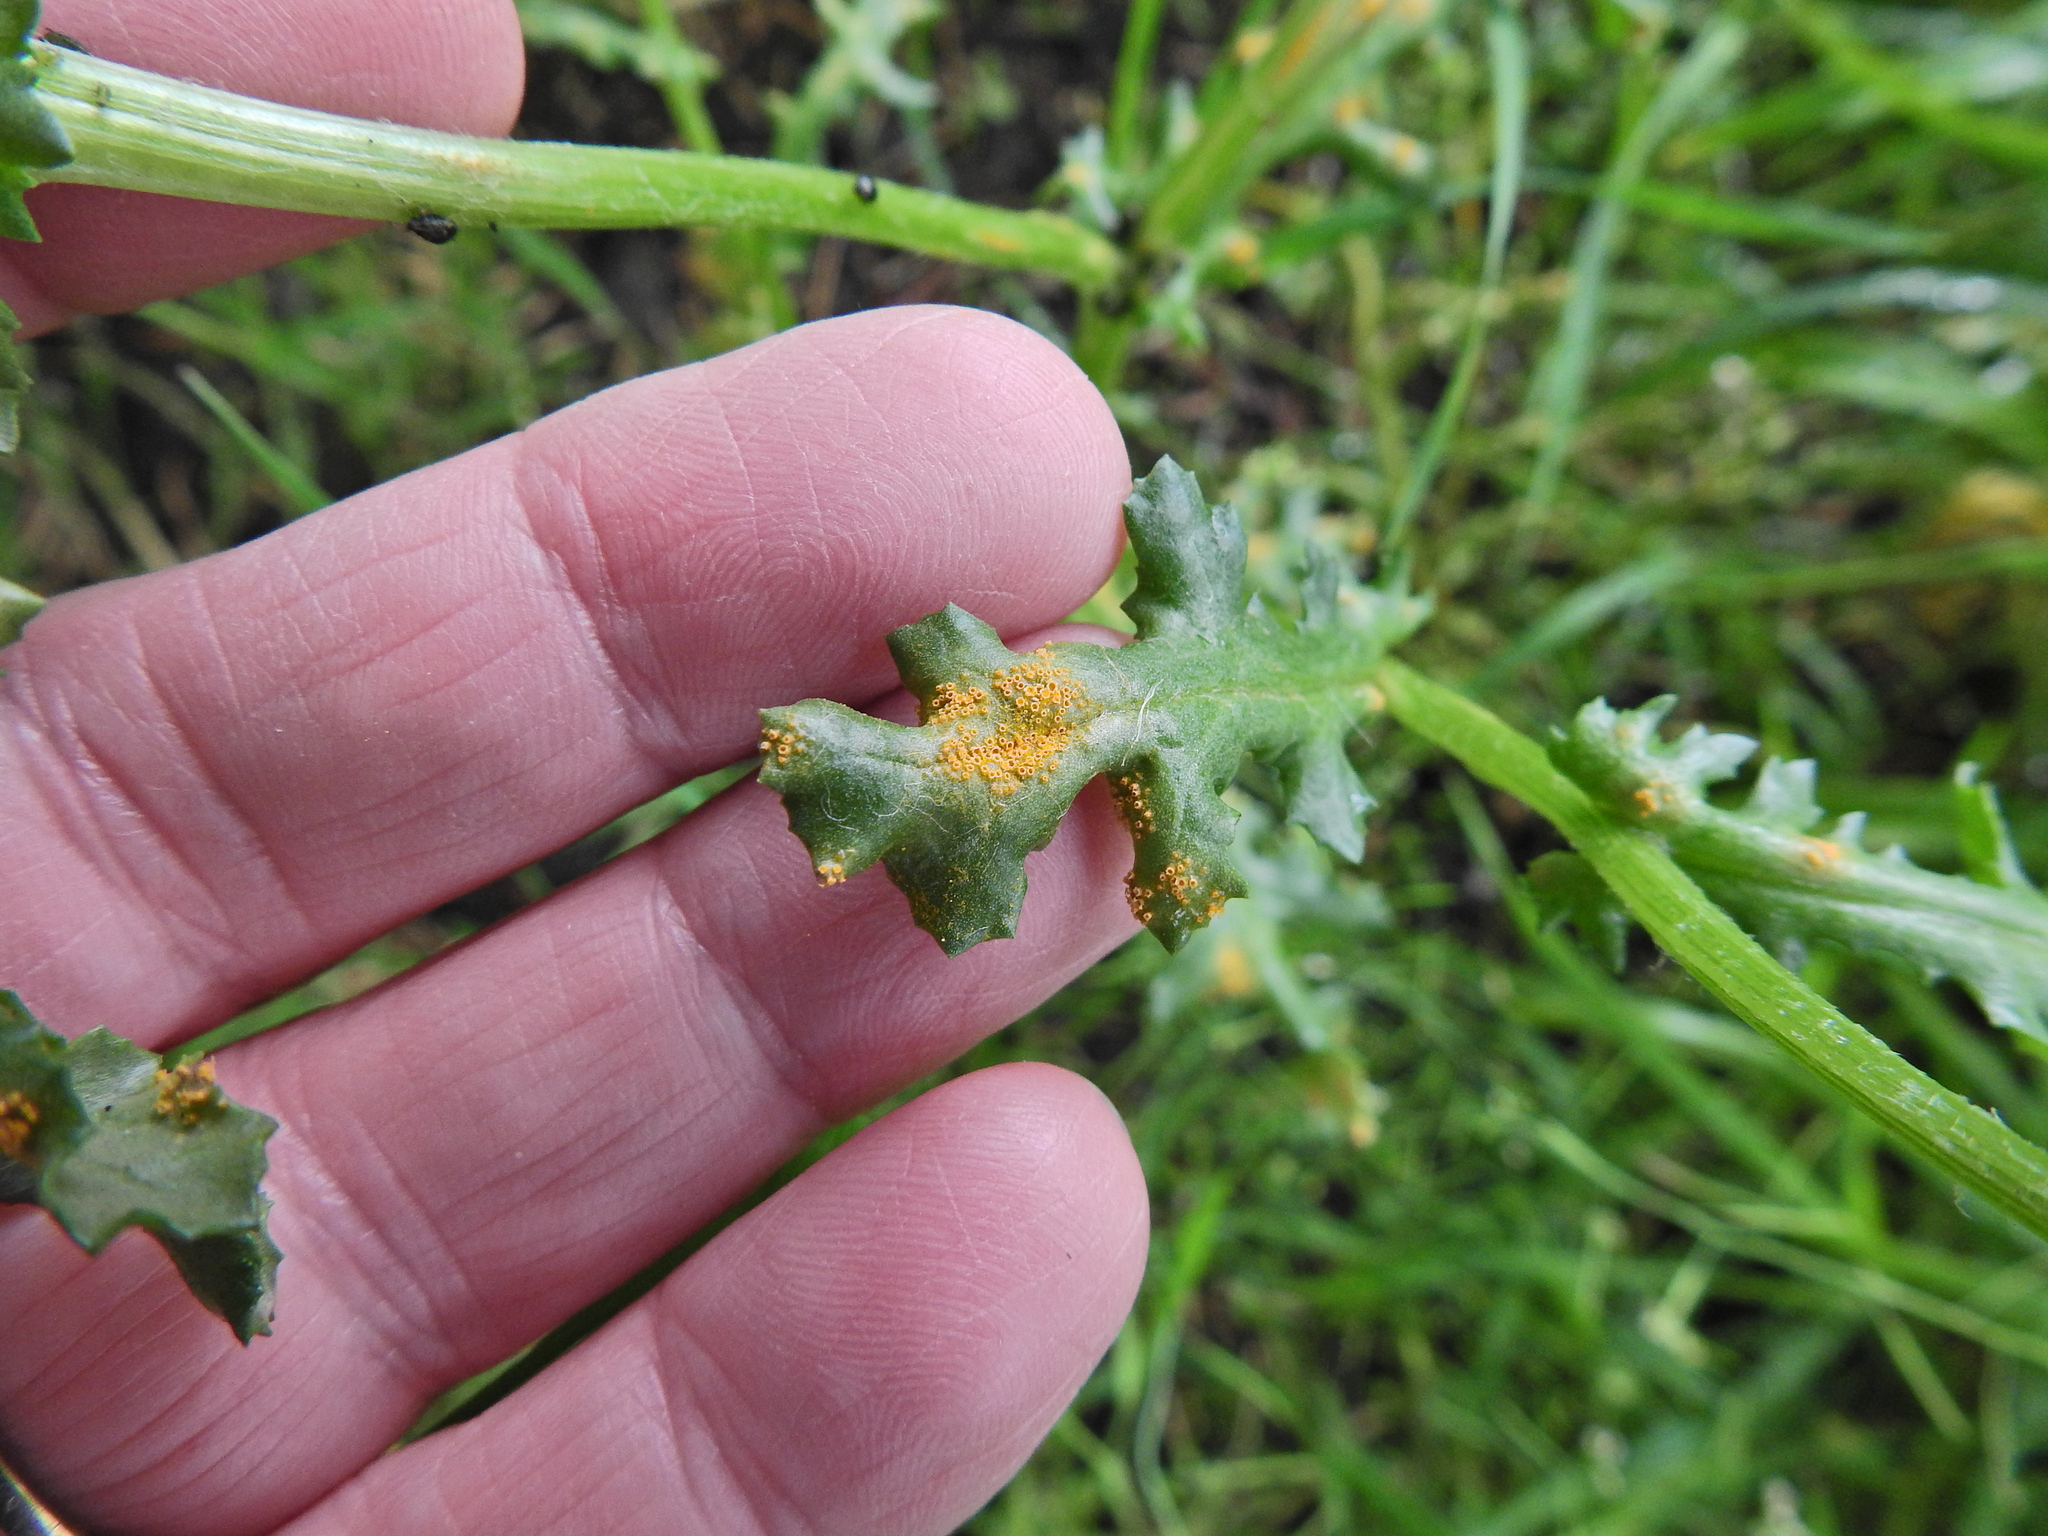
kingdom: Fungi
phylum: Basidiomycota
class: Pucciniomycetes
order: Pucciniales
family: Pucciniaceae
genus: Puccinia
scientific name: Puccinia lagenophorae
